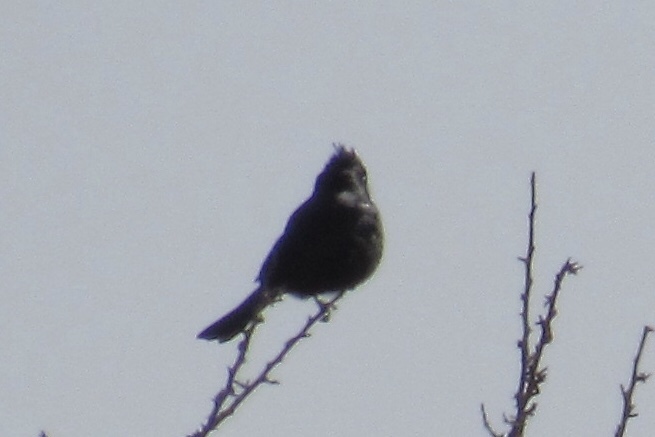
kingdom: Animalia
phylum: Chordata
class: Aves
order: Passeriformes
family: Ptilogonatidae
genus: Phainopepla
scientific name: Phainopepla nitens
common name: Phainopepla
